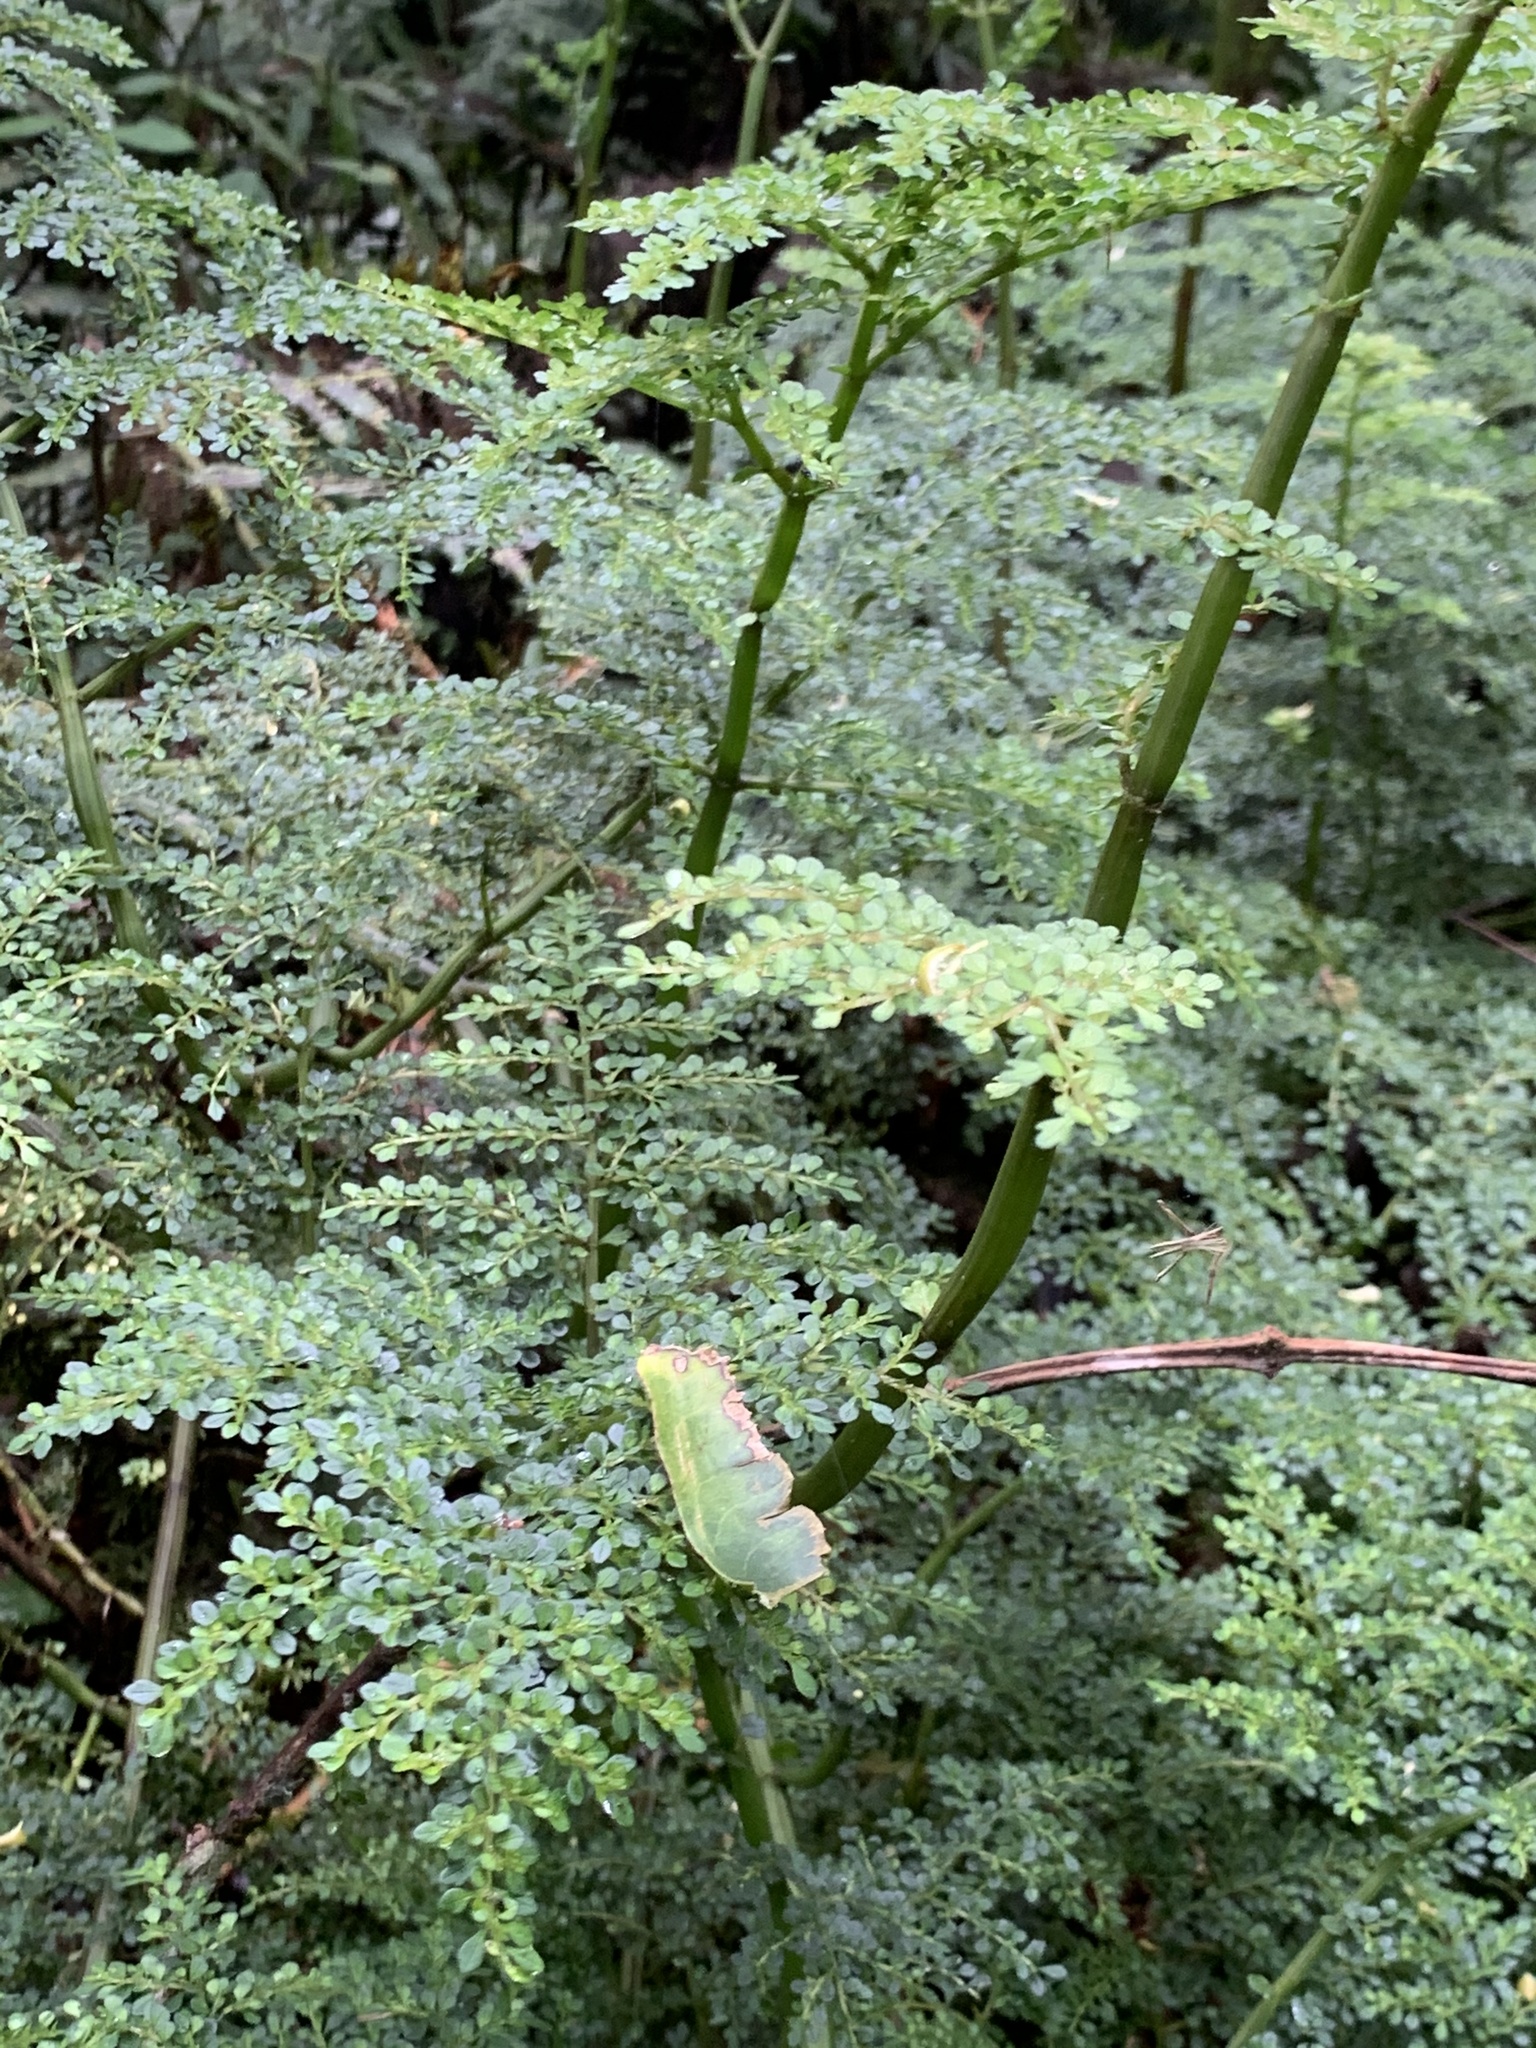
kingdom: Plantae
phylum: Tracheophyta
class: Magnoliopsida
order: Rosales
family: Urticaceae
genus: Pilea
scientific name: Pilea myriophylla
